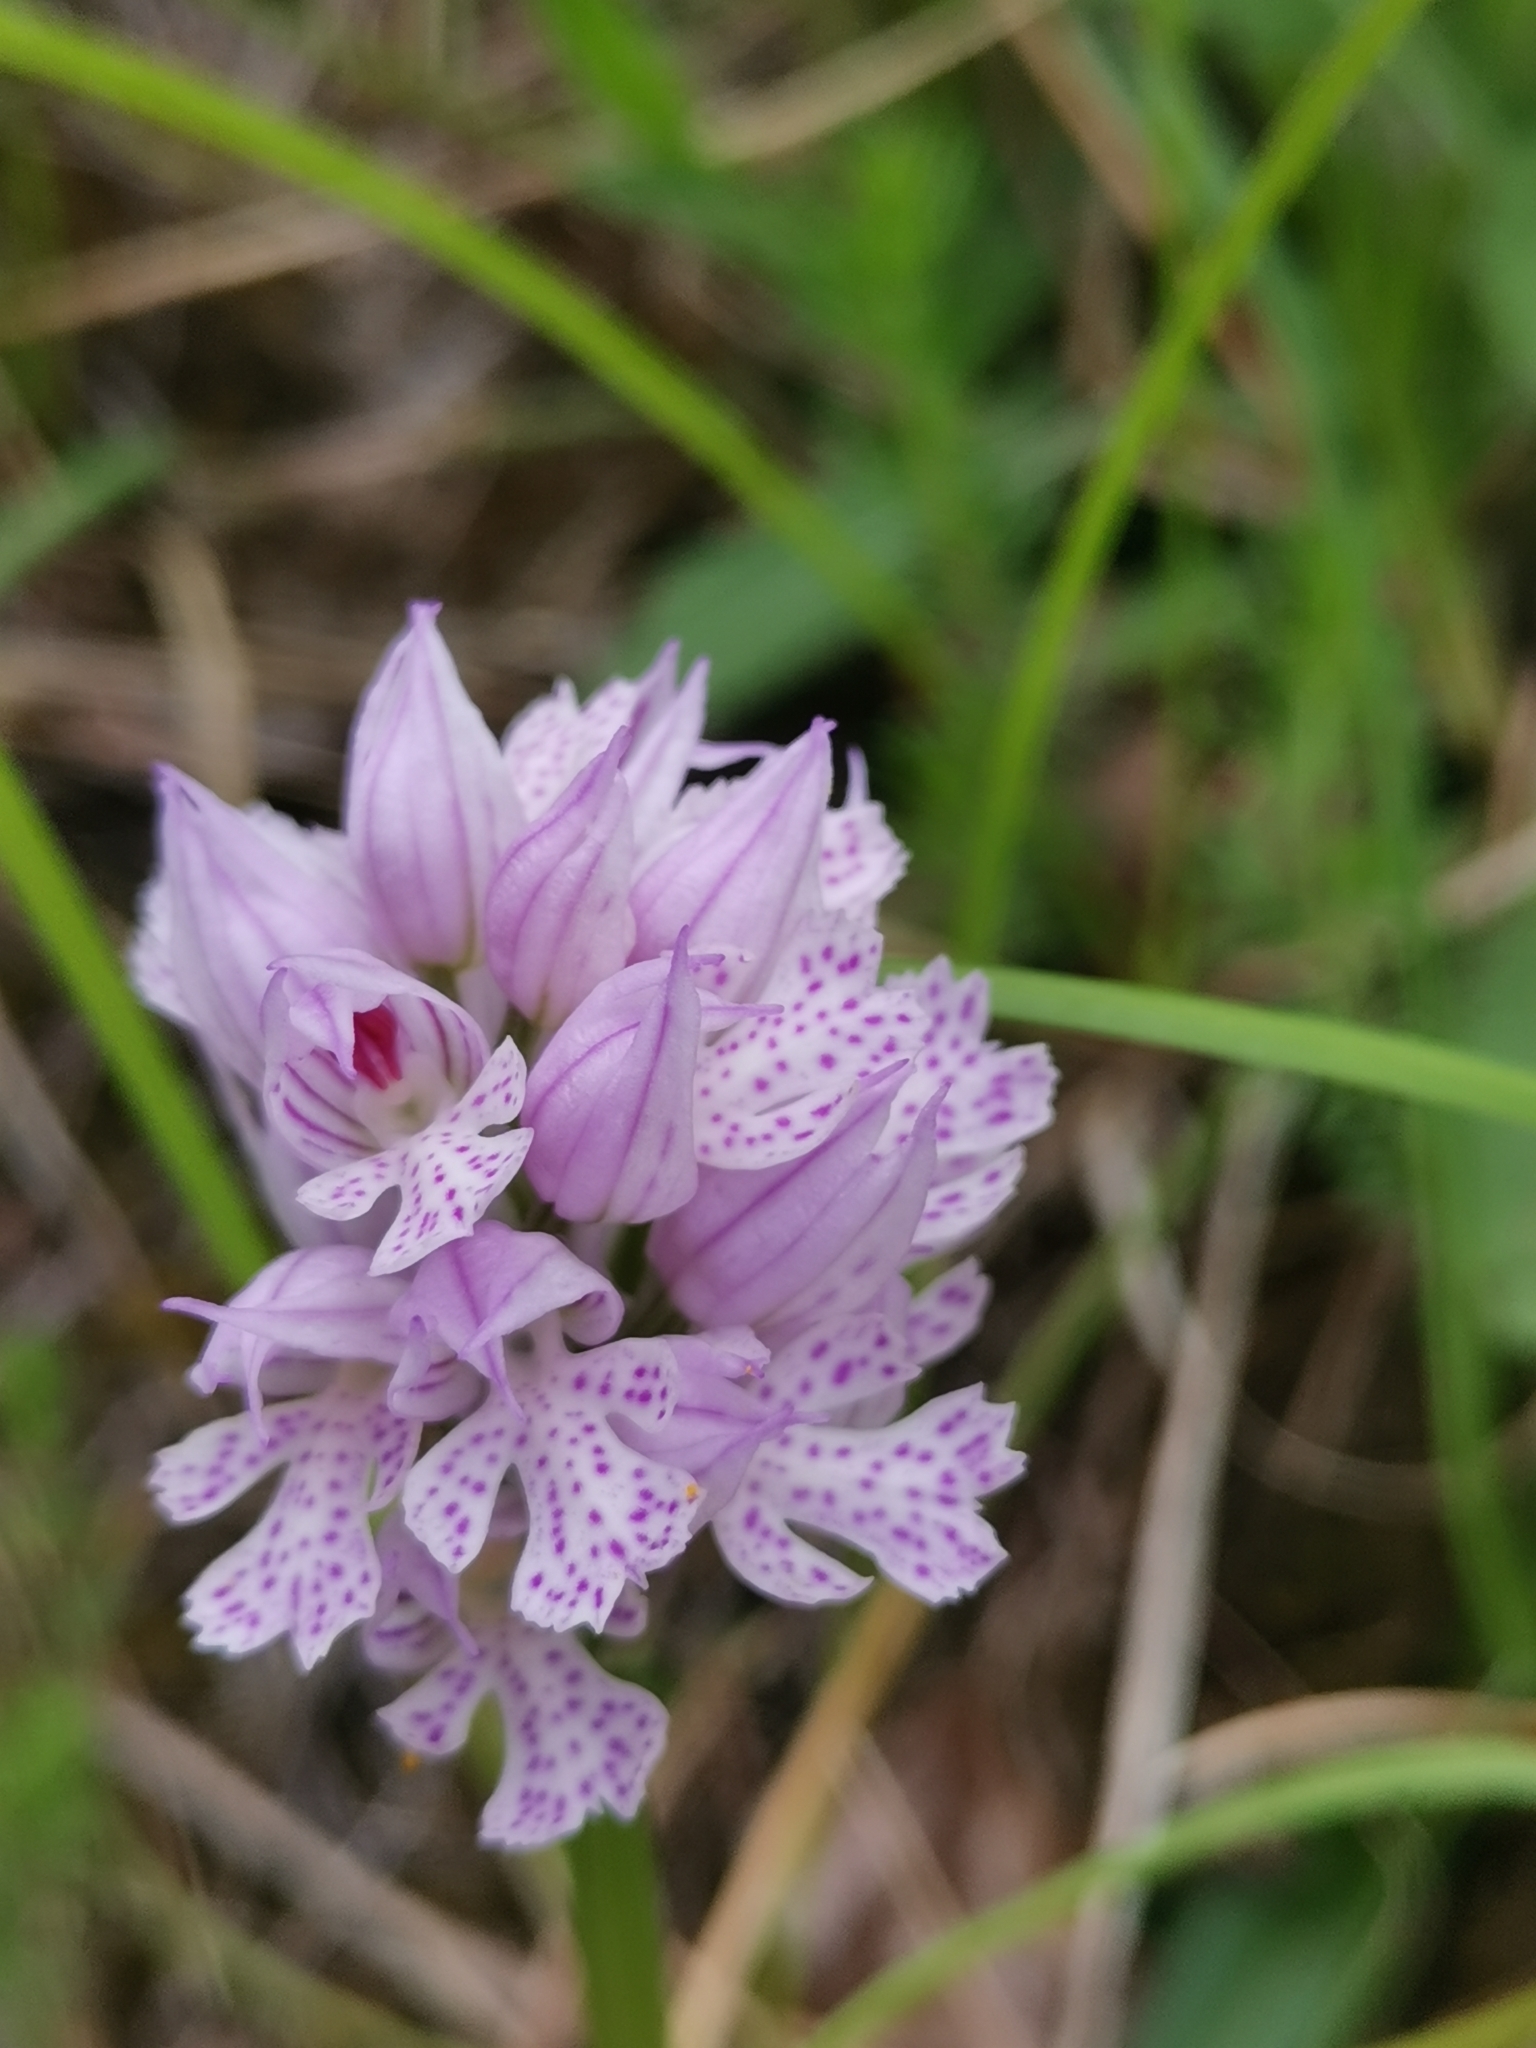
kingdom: Plantae
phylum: Tracheophyta
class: Liliopsida
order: Asparagales
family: Orchidaceae
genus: Neotinea
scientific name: Neotinea tridentata
